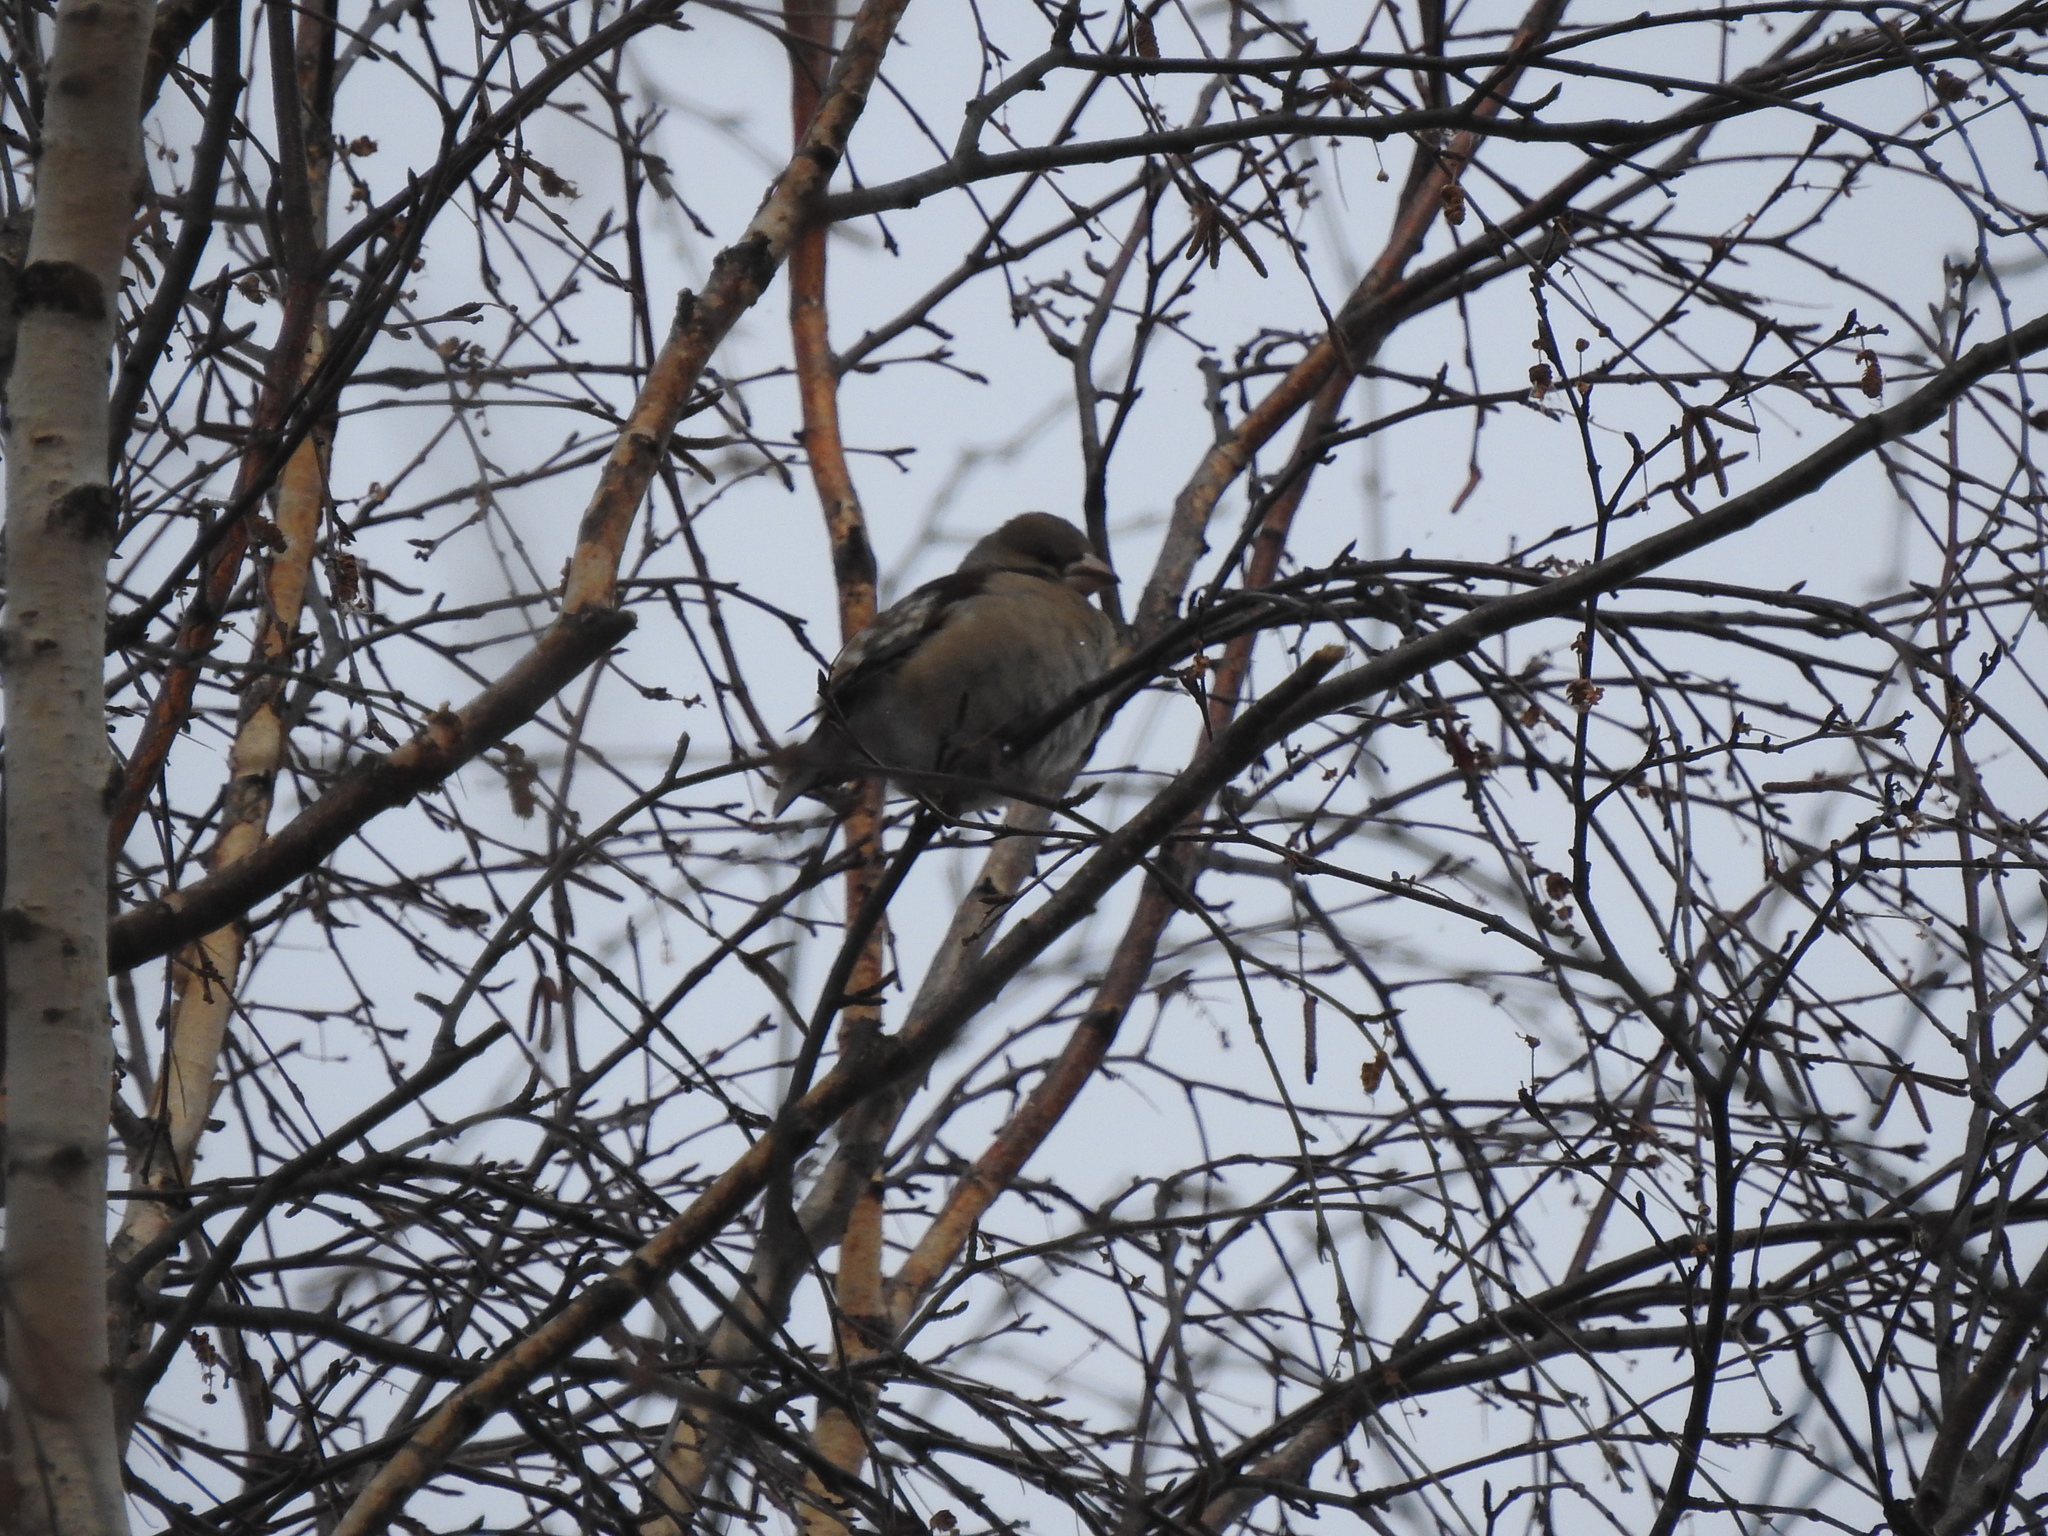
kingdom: Animalia
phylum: Chordata
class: Aves
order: Passeriformes
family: Fringillidae
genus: Coccothraustes
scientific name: Coccothraustes coccothraustes
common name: Hawfinch
